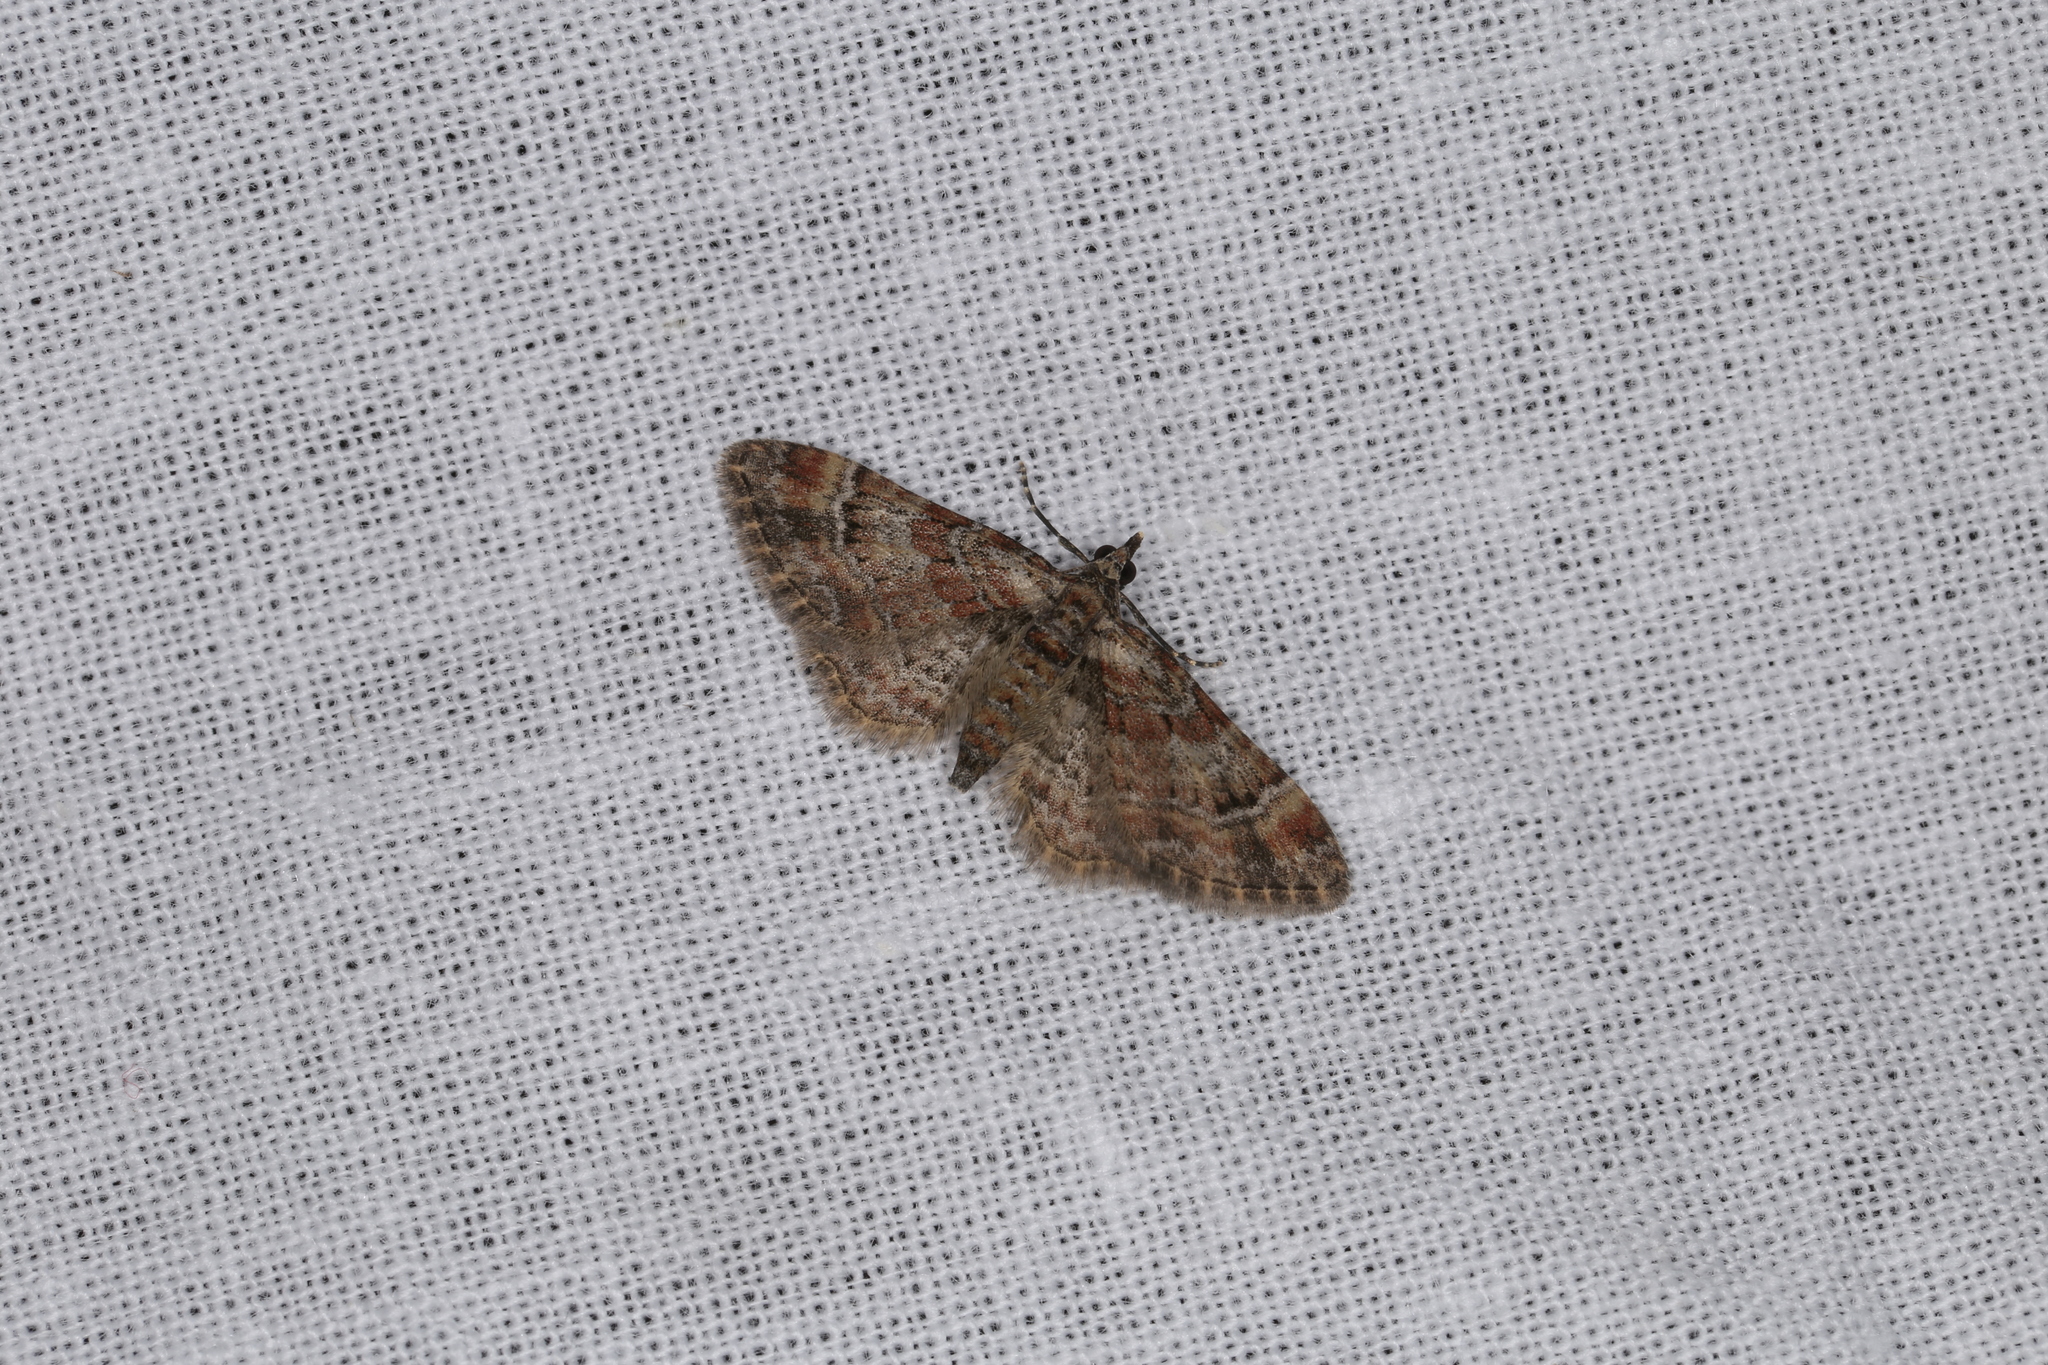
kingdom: Animalia
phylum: Arthropoda
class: Insecta
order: Lepidoptera
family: Geometridae
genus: Gymnoscelis
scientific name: Gymnoscelis rufifasciata
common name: Double-striped pug
